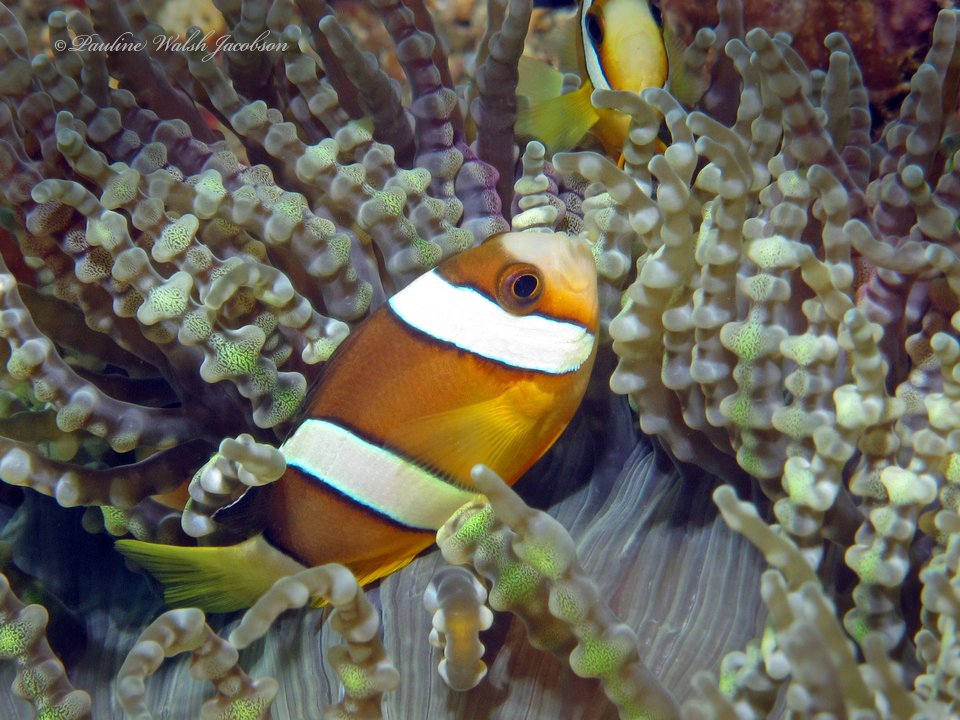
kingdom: Animalia
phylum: Chordata
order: Perciformes
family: Pomacentridae
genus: Amphiprion
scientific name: Amphiprion clarkii
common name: Clark's anemonefish
